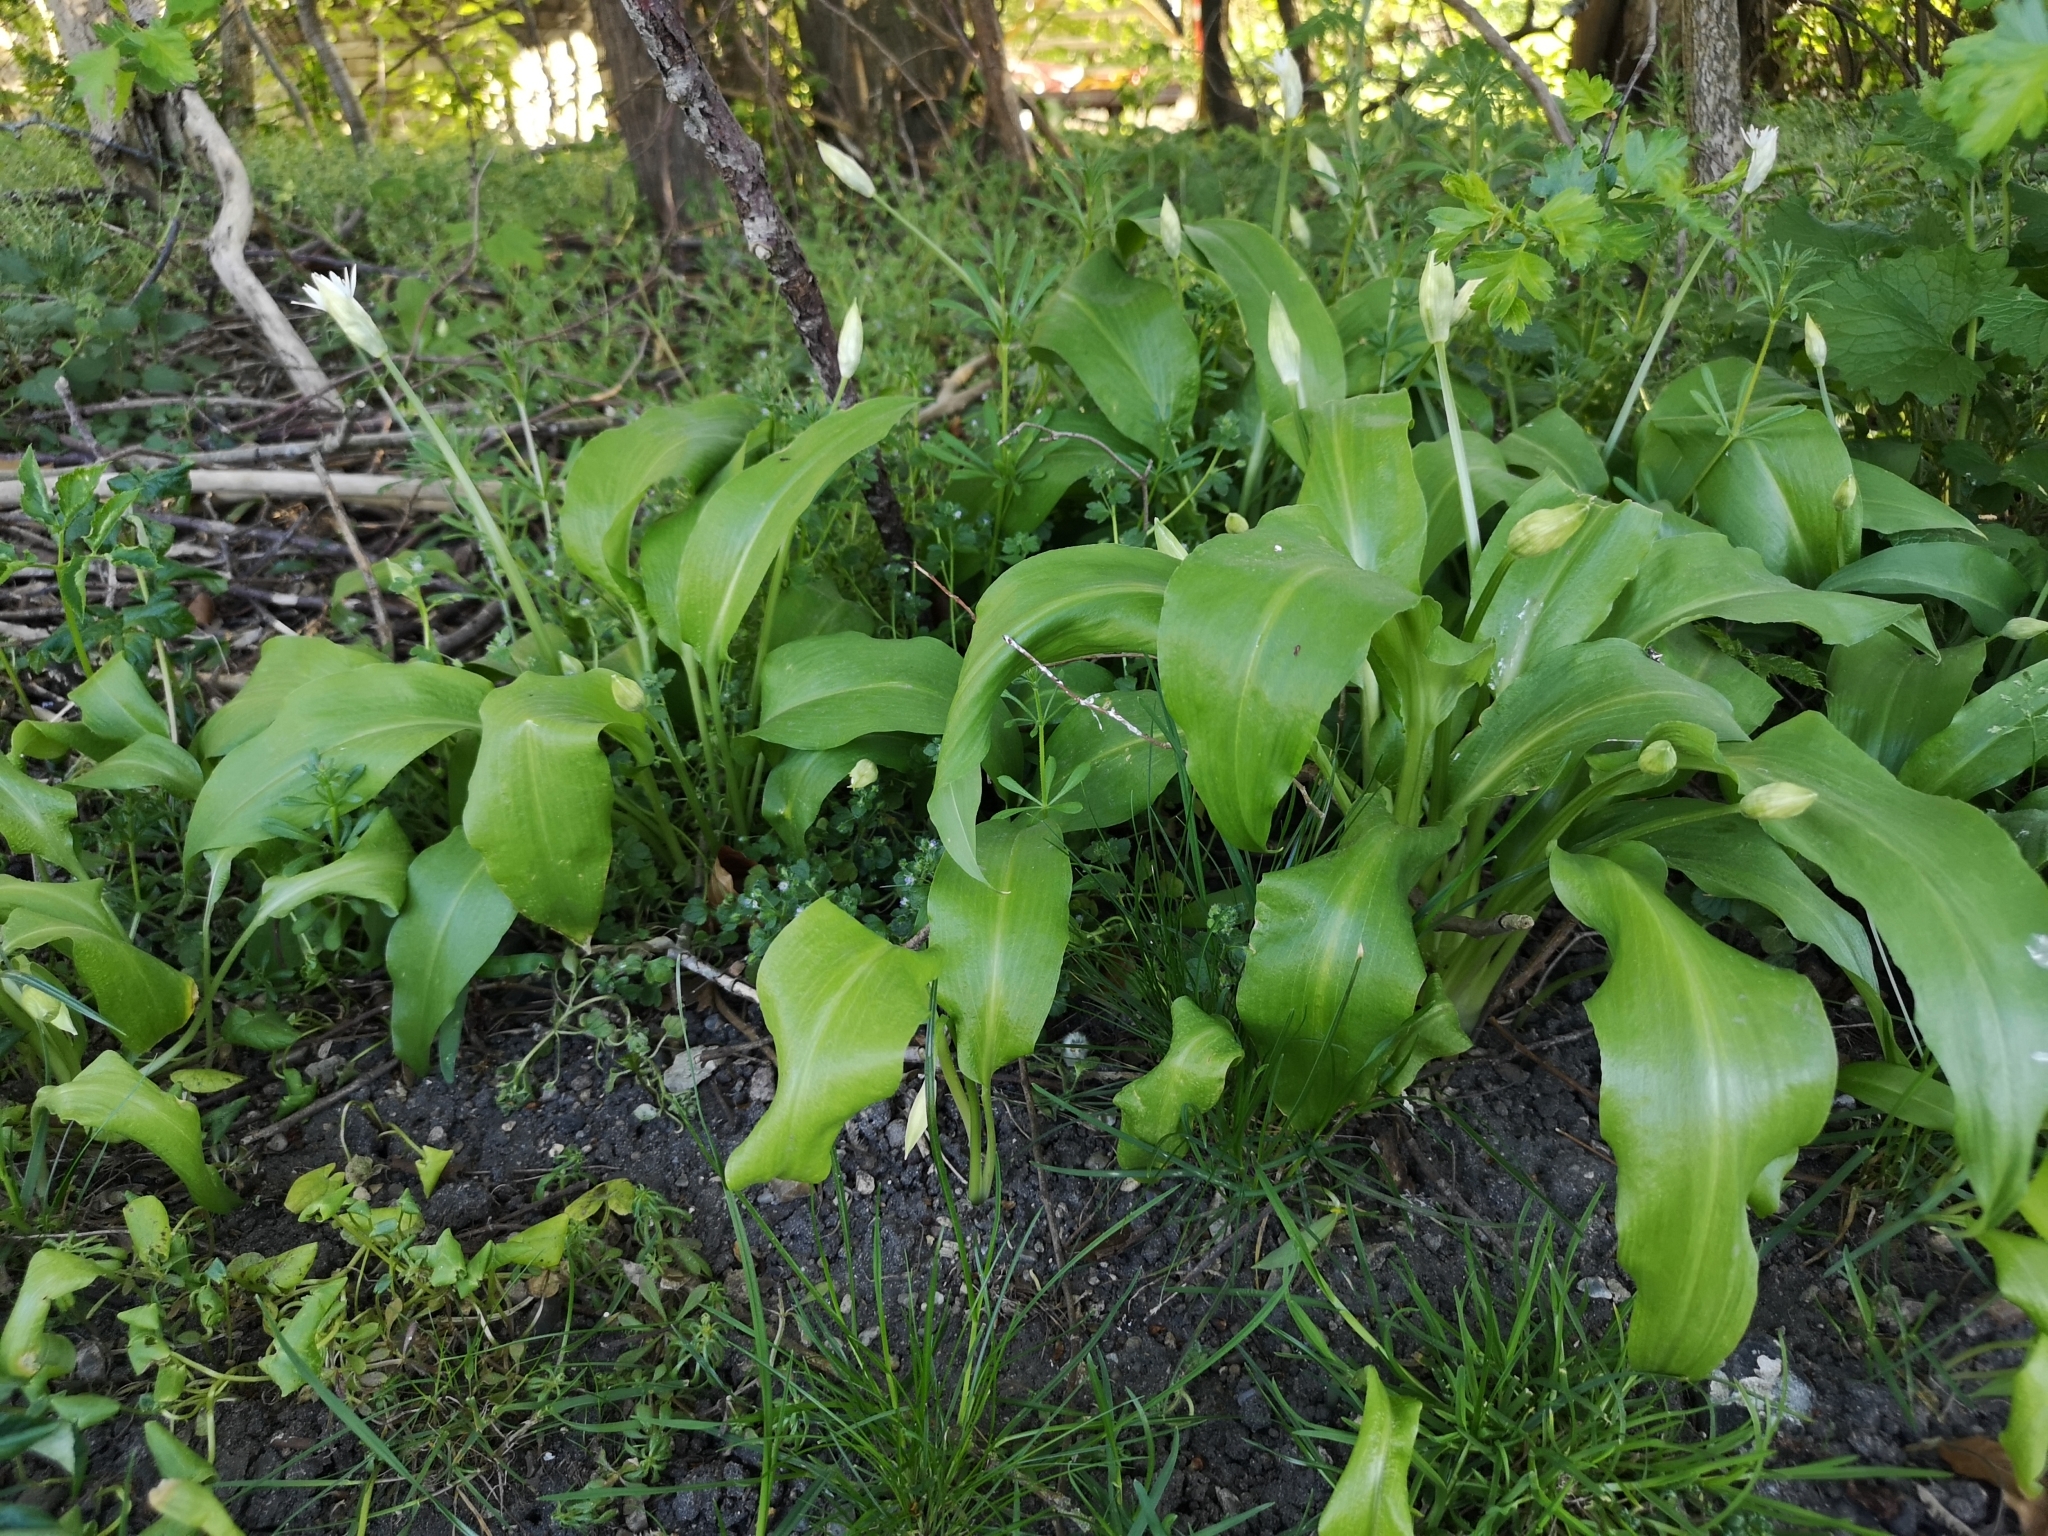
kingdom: Plantae
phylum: Tracheophyta
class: Liliopsida
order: Asparagales
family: Amaryllidaceae
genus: Allium
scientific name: Allium ursinum
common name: Ramsons
